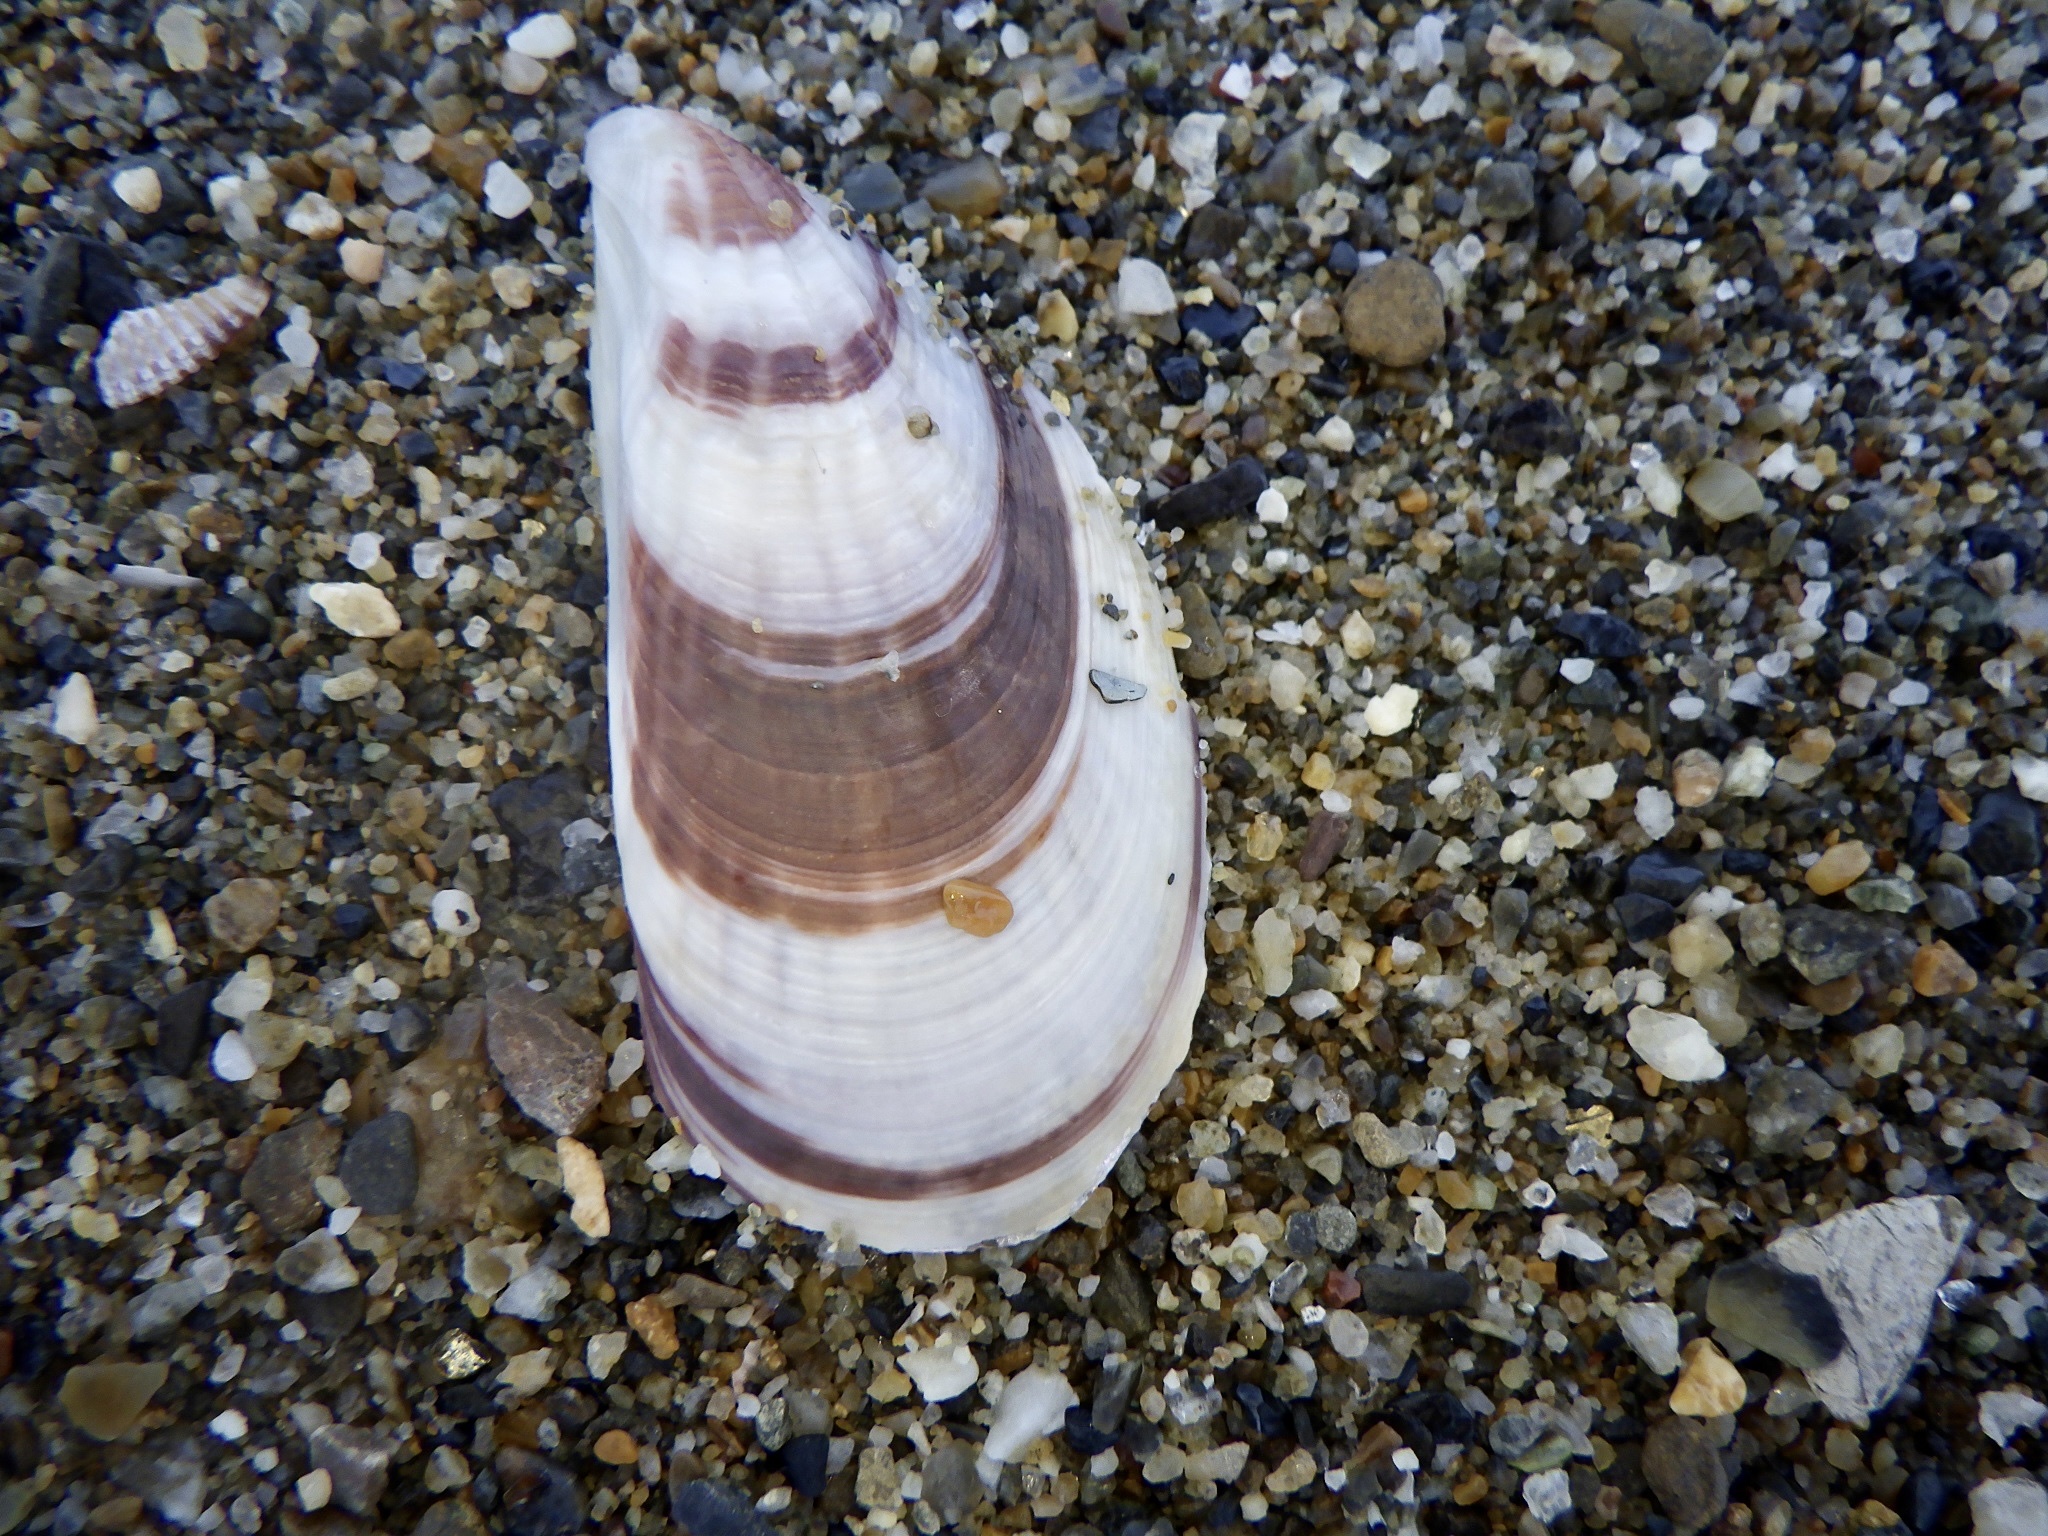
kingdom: Animalia
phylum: Mollusca
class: Bivalvia
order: Mytilida
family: Mytilidae
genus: Mytilisepta
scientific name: Mytilisepta virgata
